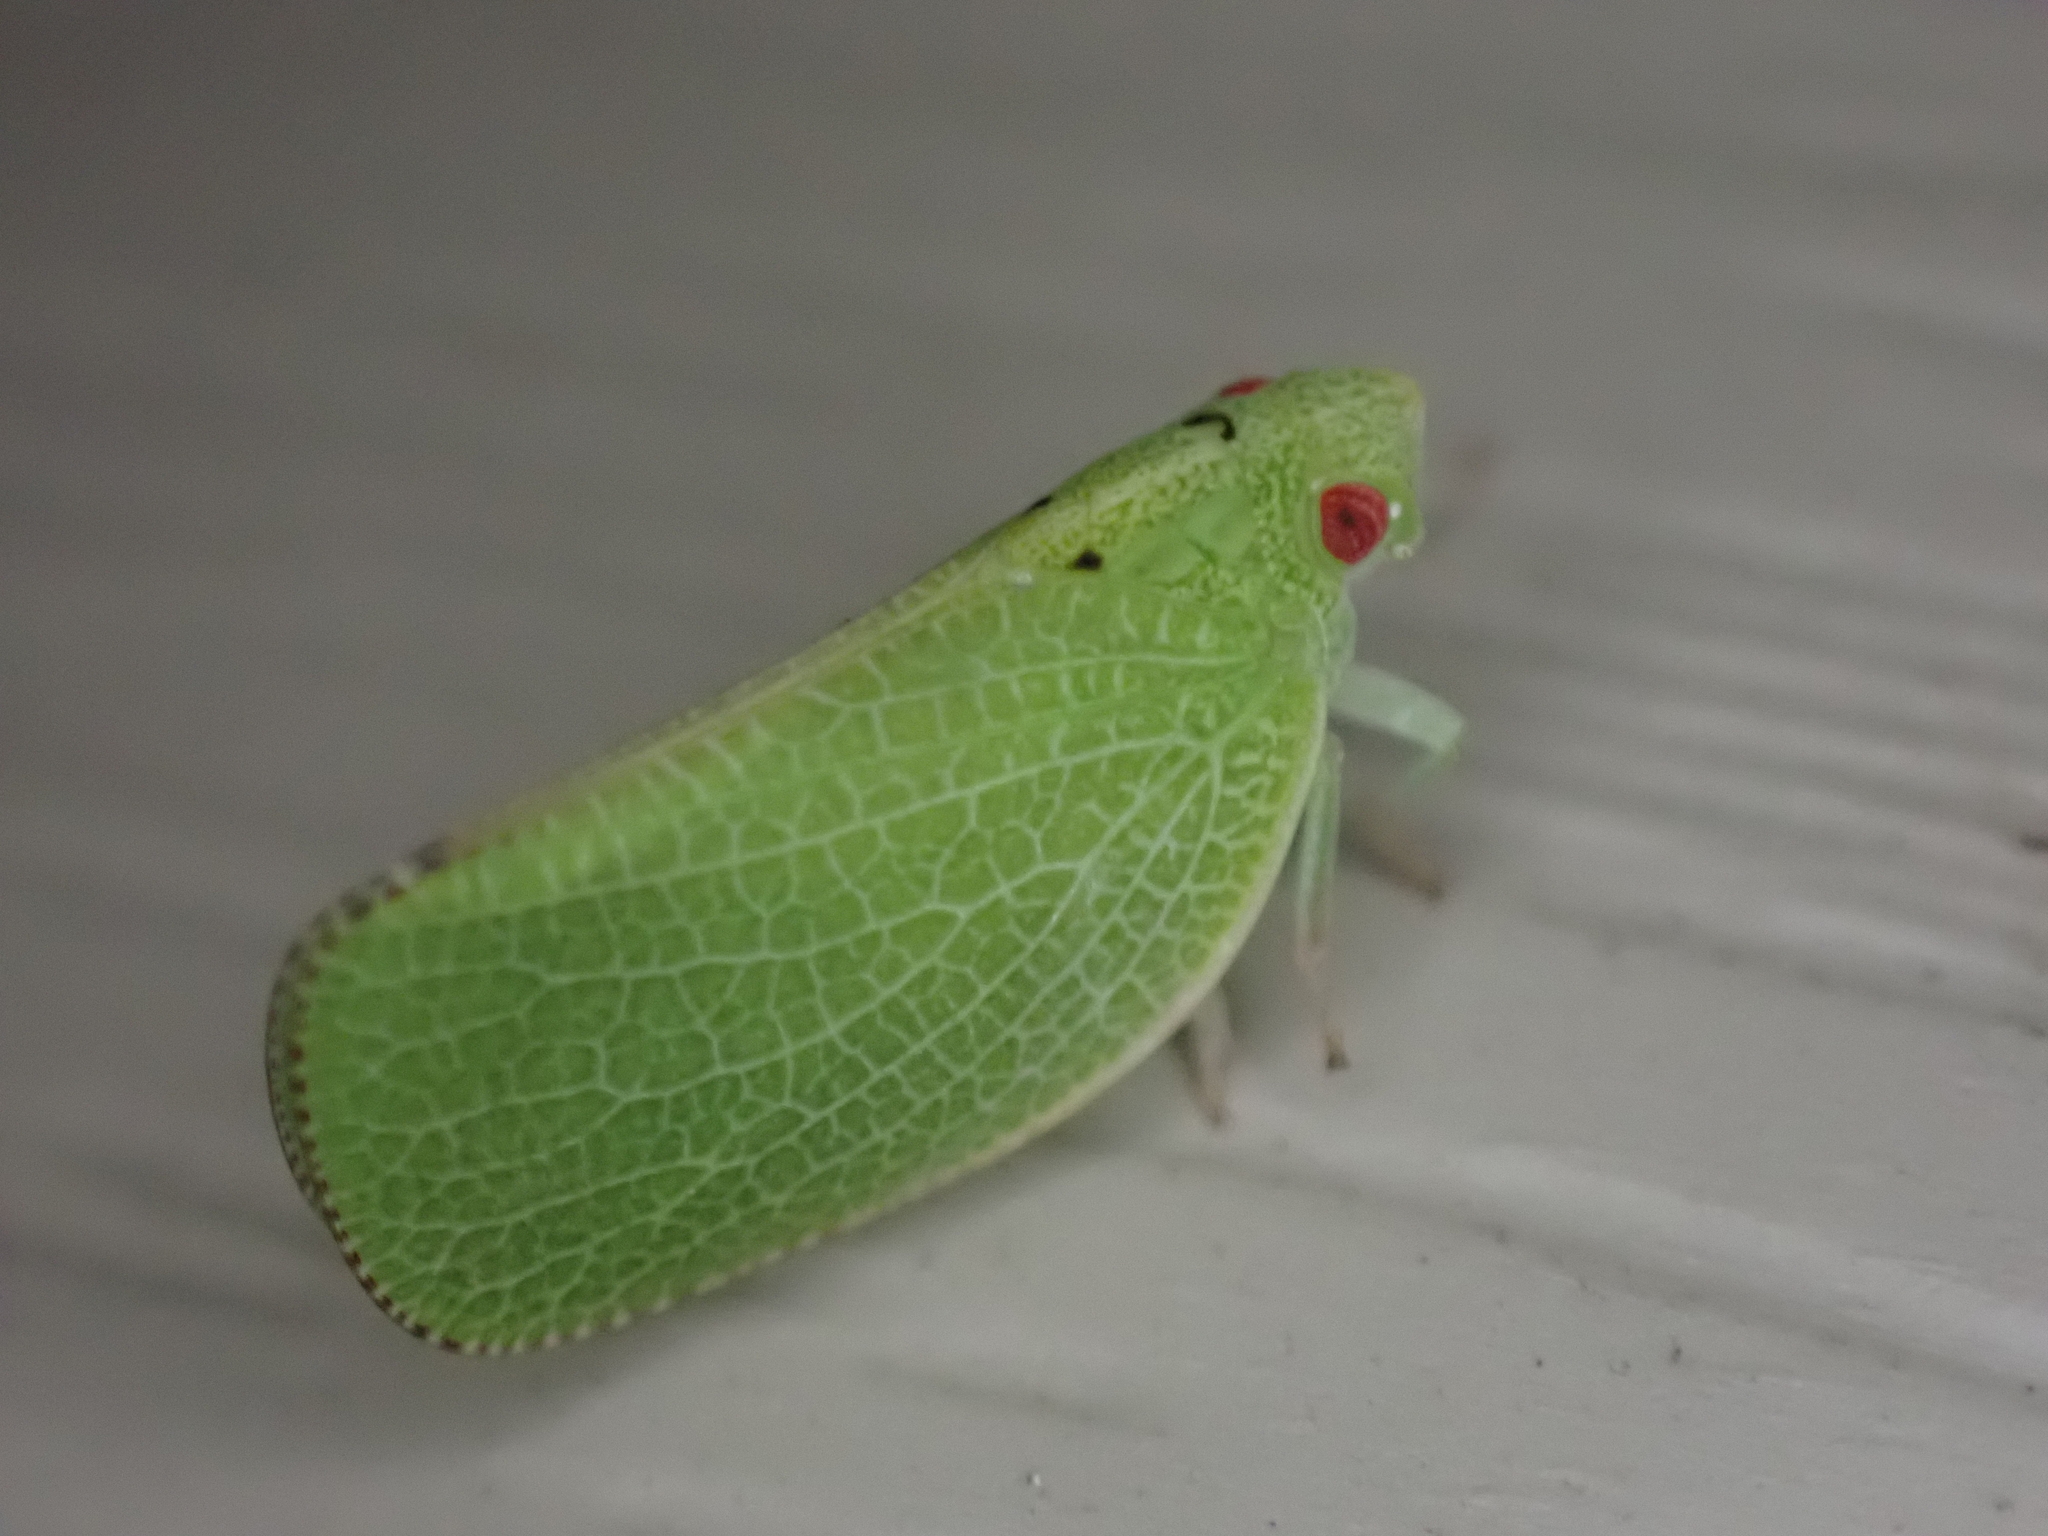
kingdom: Animalia
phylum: Arthropoda
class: Insecta
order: Hemiptera
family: Acanaloniidae
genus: Acanalonia
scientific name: Acanalonia conica
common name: Green cone-headed planthopper
